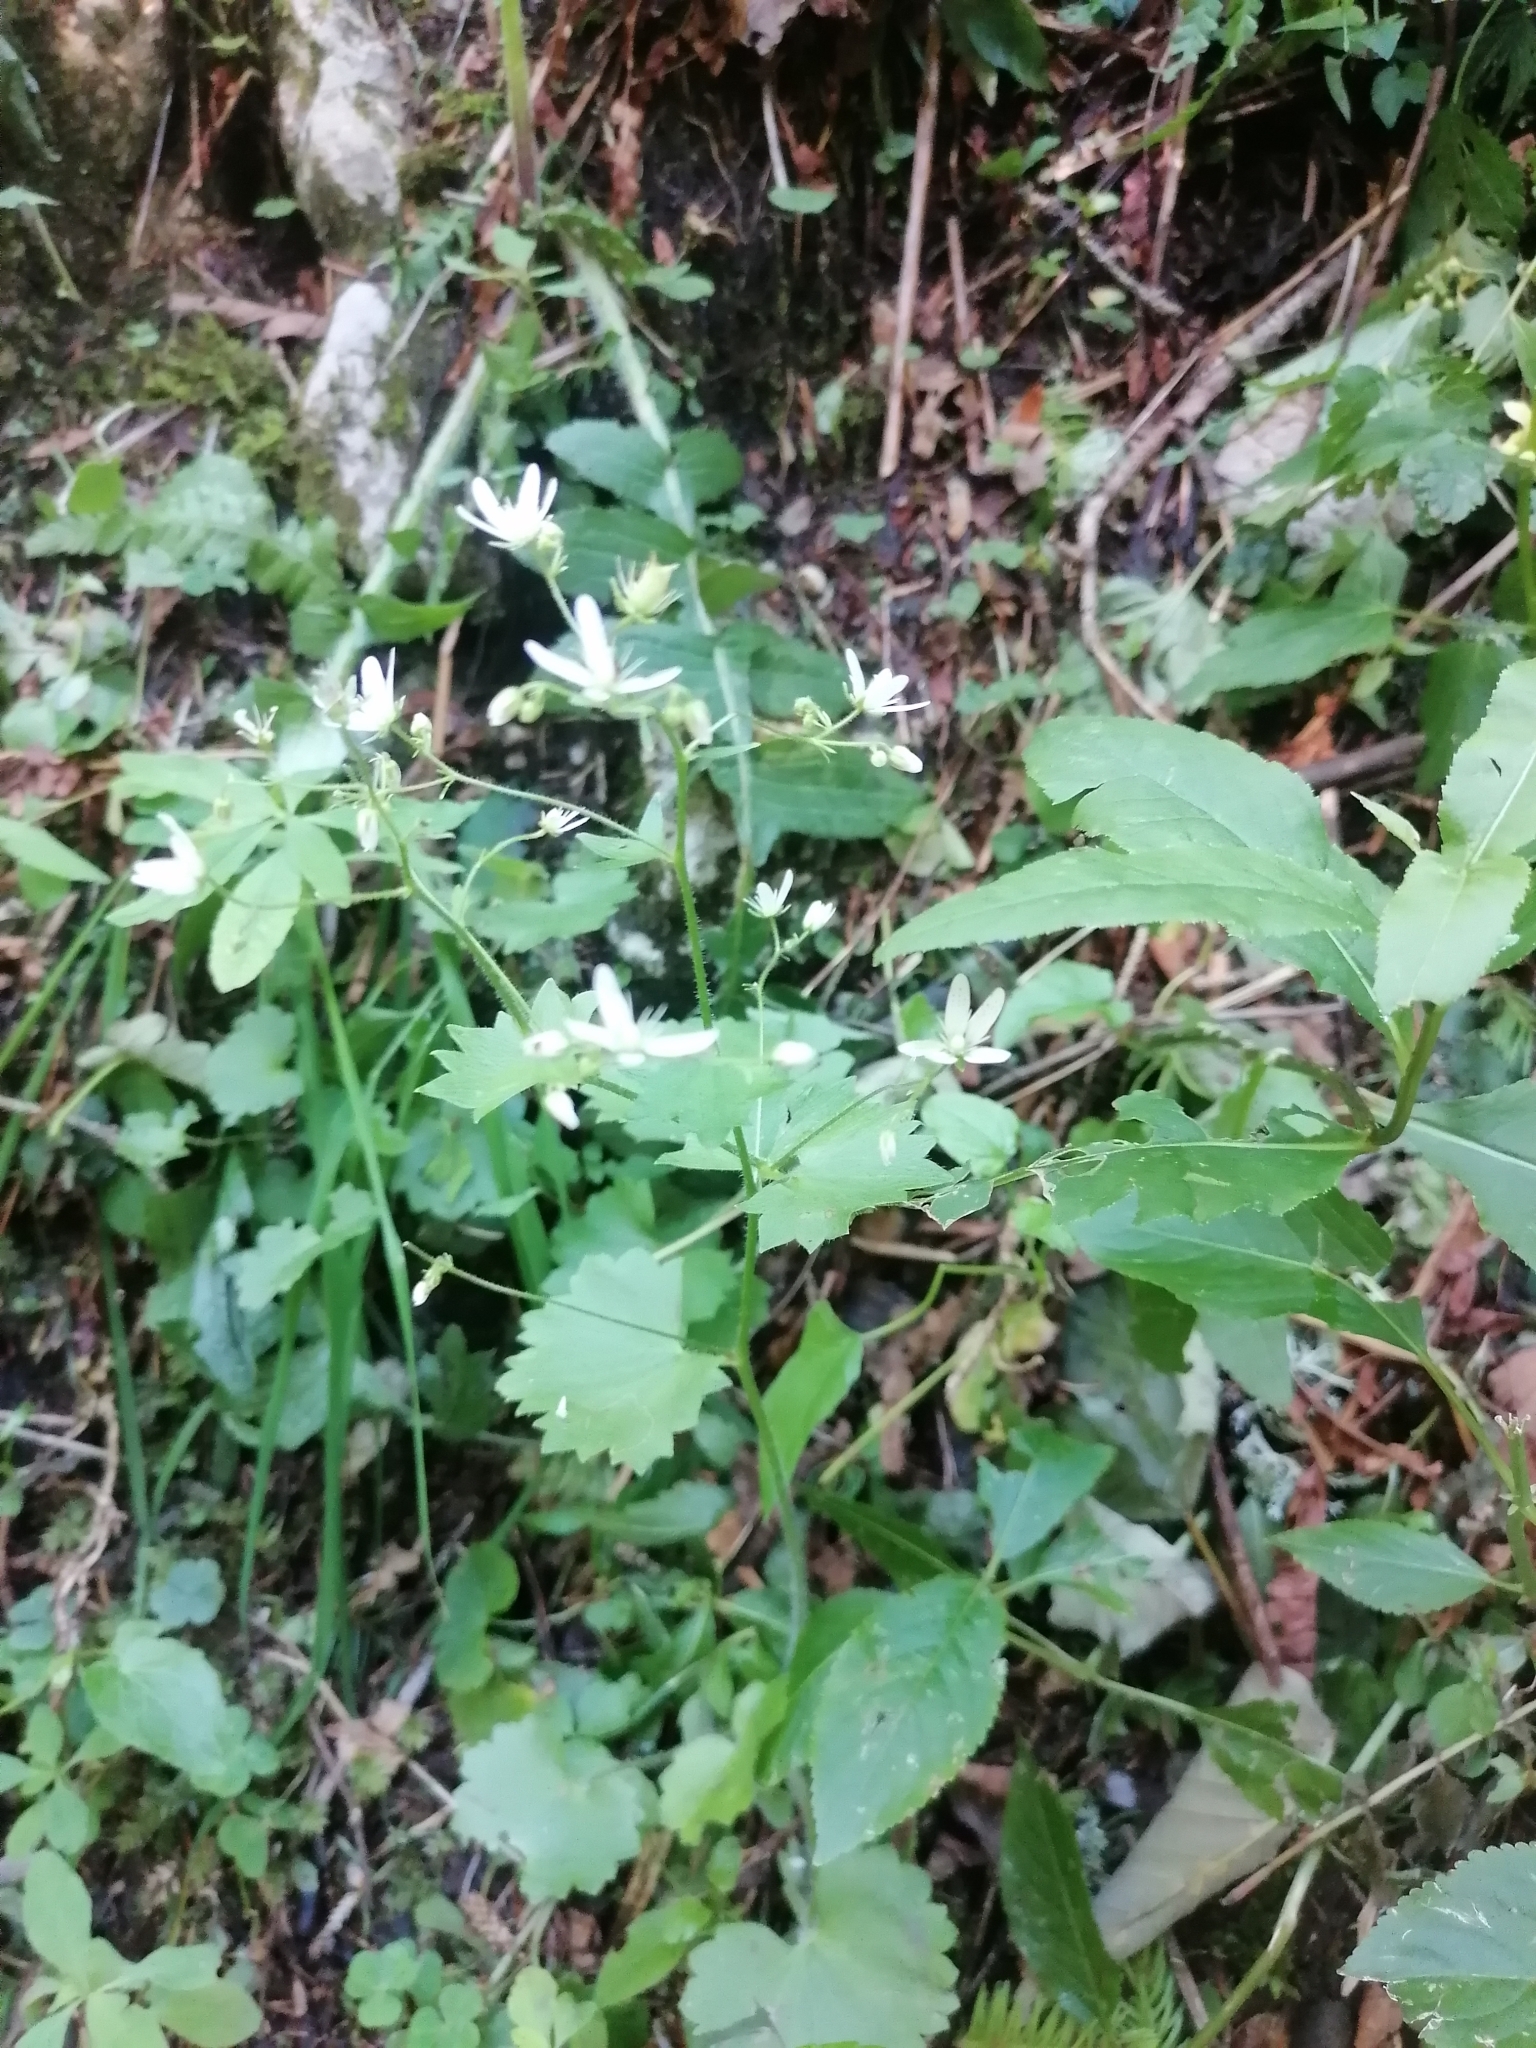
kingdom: Plantae
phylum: Tracheophyta
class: Magnoliopsida
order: Saxifragales
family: Saxifragaceae
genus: Saxifraga
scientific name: Saxifraga rotundifolia
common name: Round-leaved saxifrage
